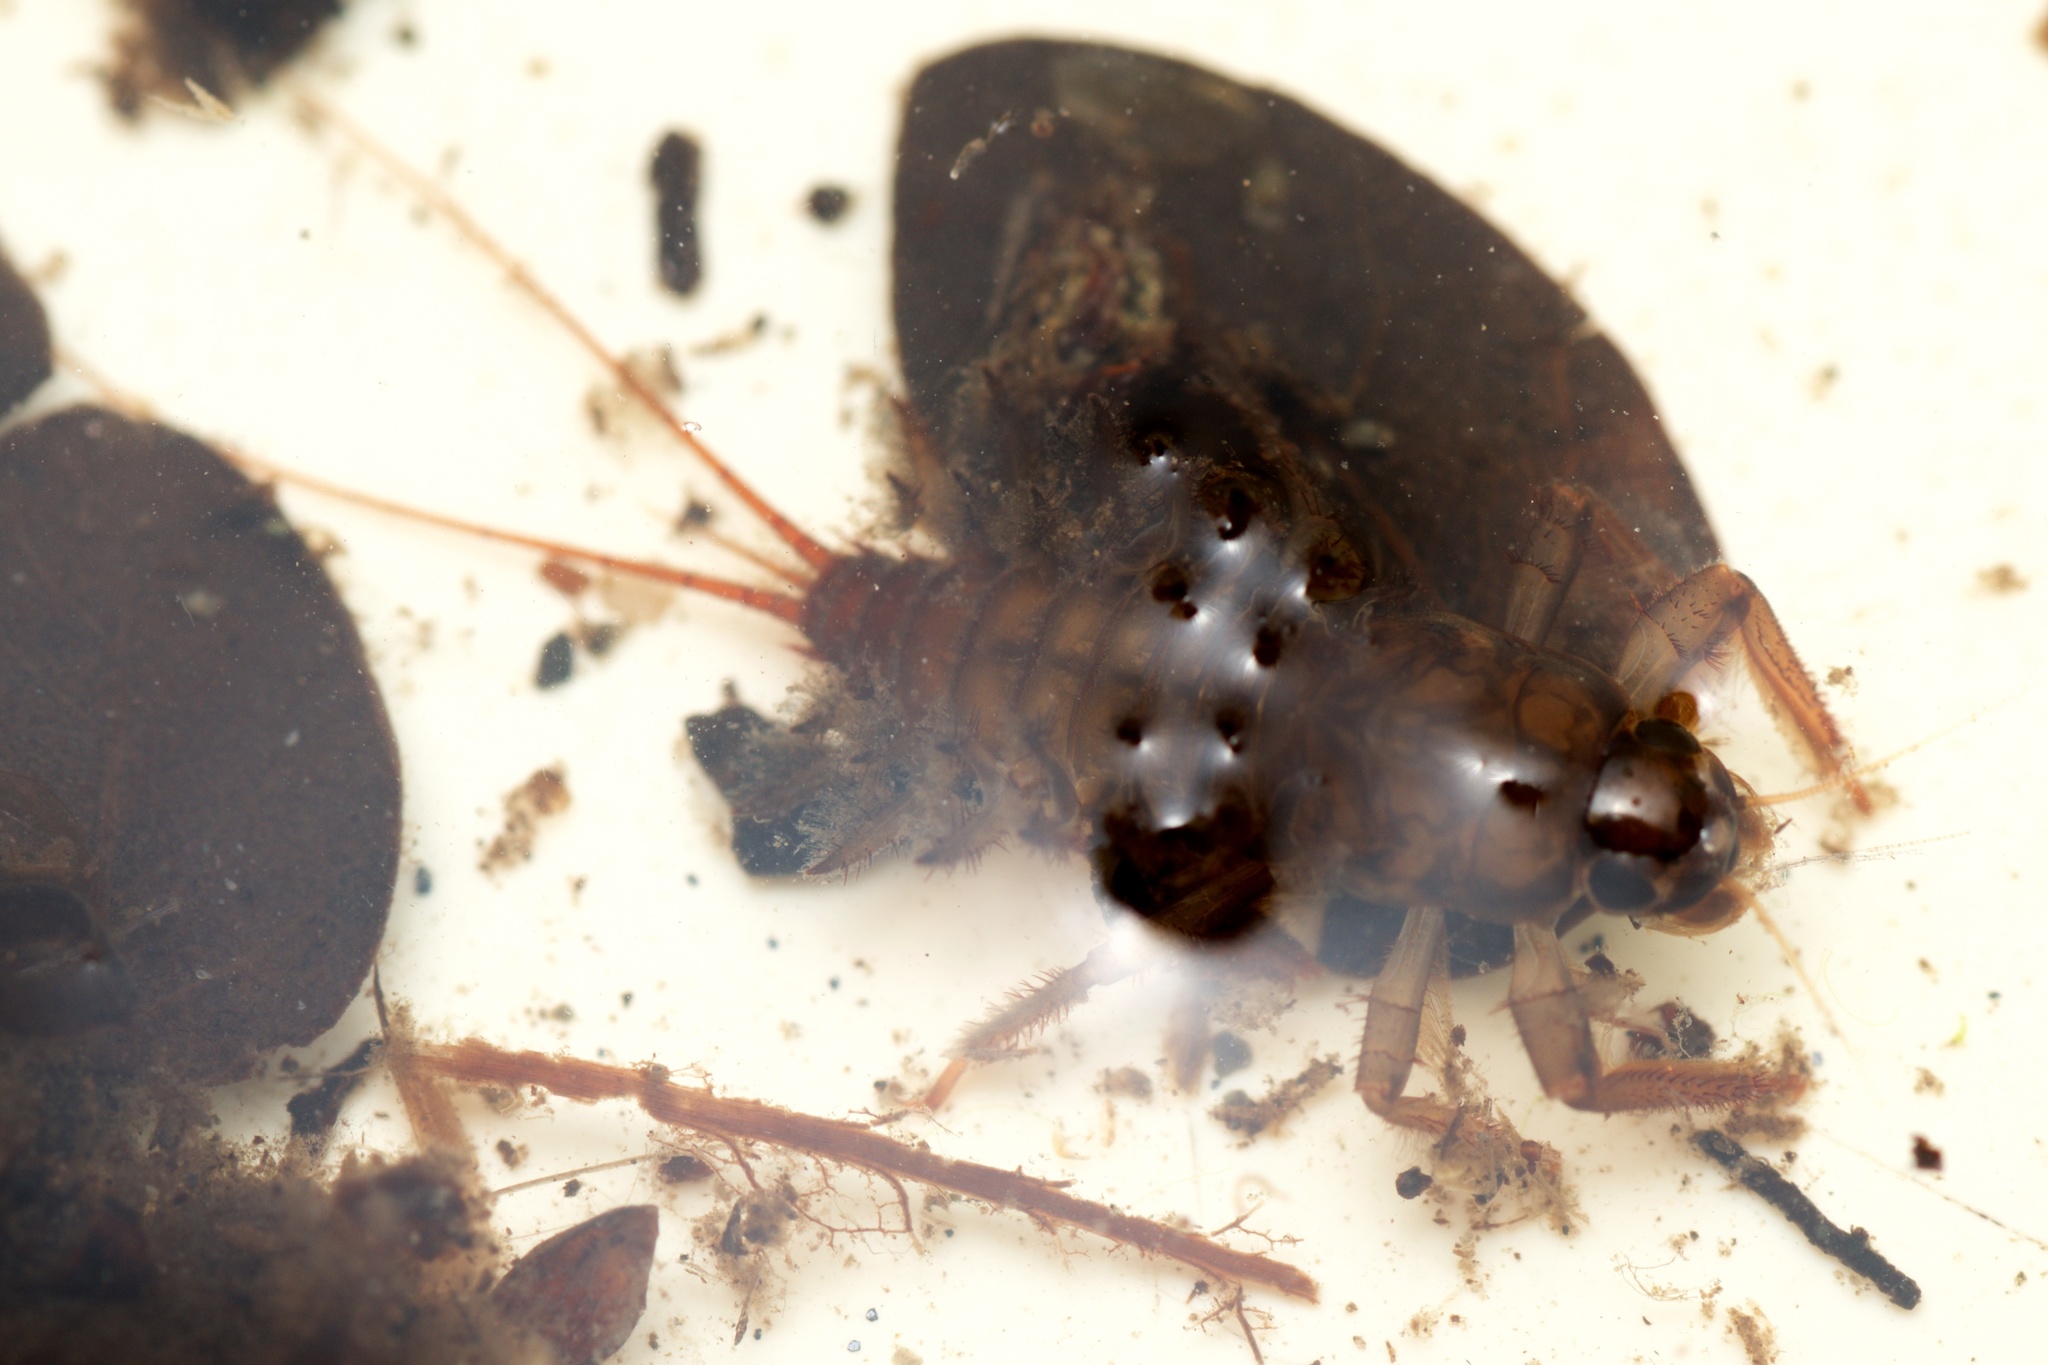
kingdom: Animalia
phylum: Arthropoda
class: Insecta
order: Ephemeroptera
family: Coloburiscidae
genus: Coloburiscus
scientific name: Coloburiscus humeralis
